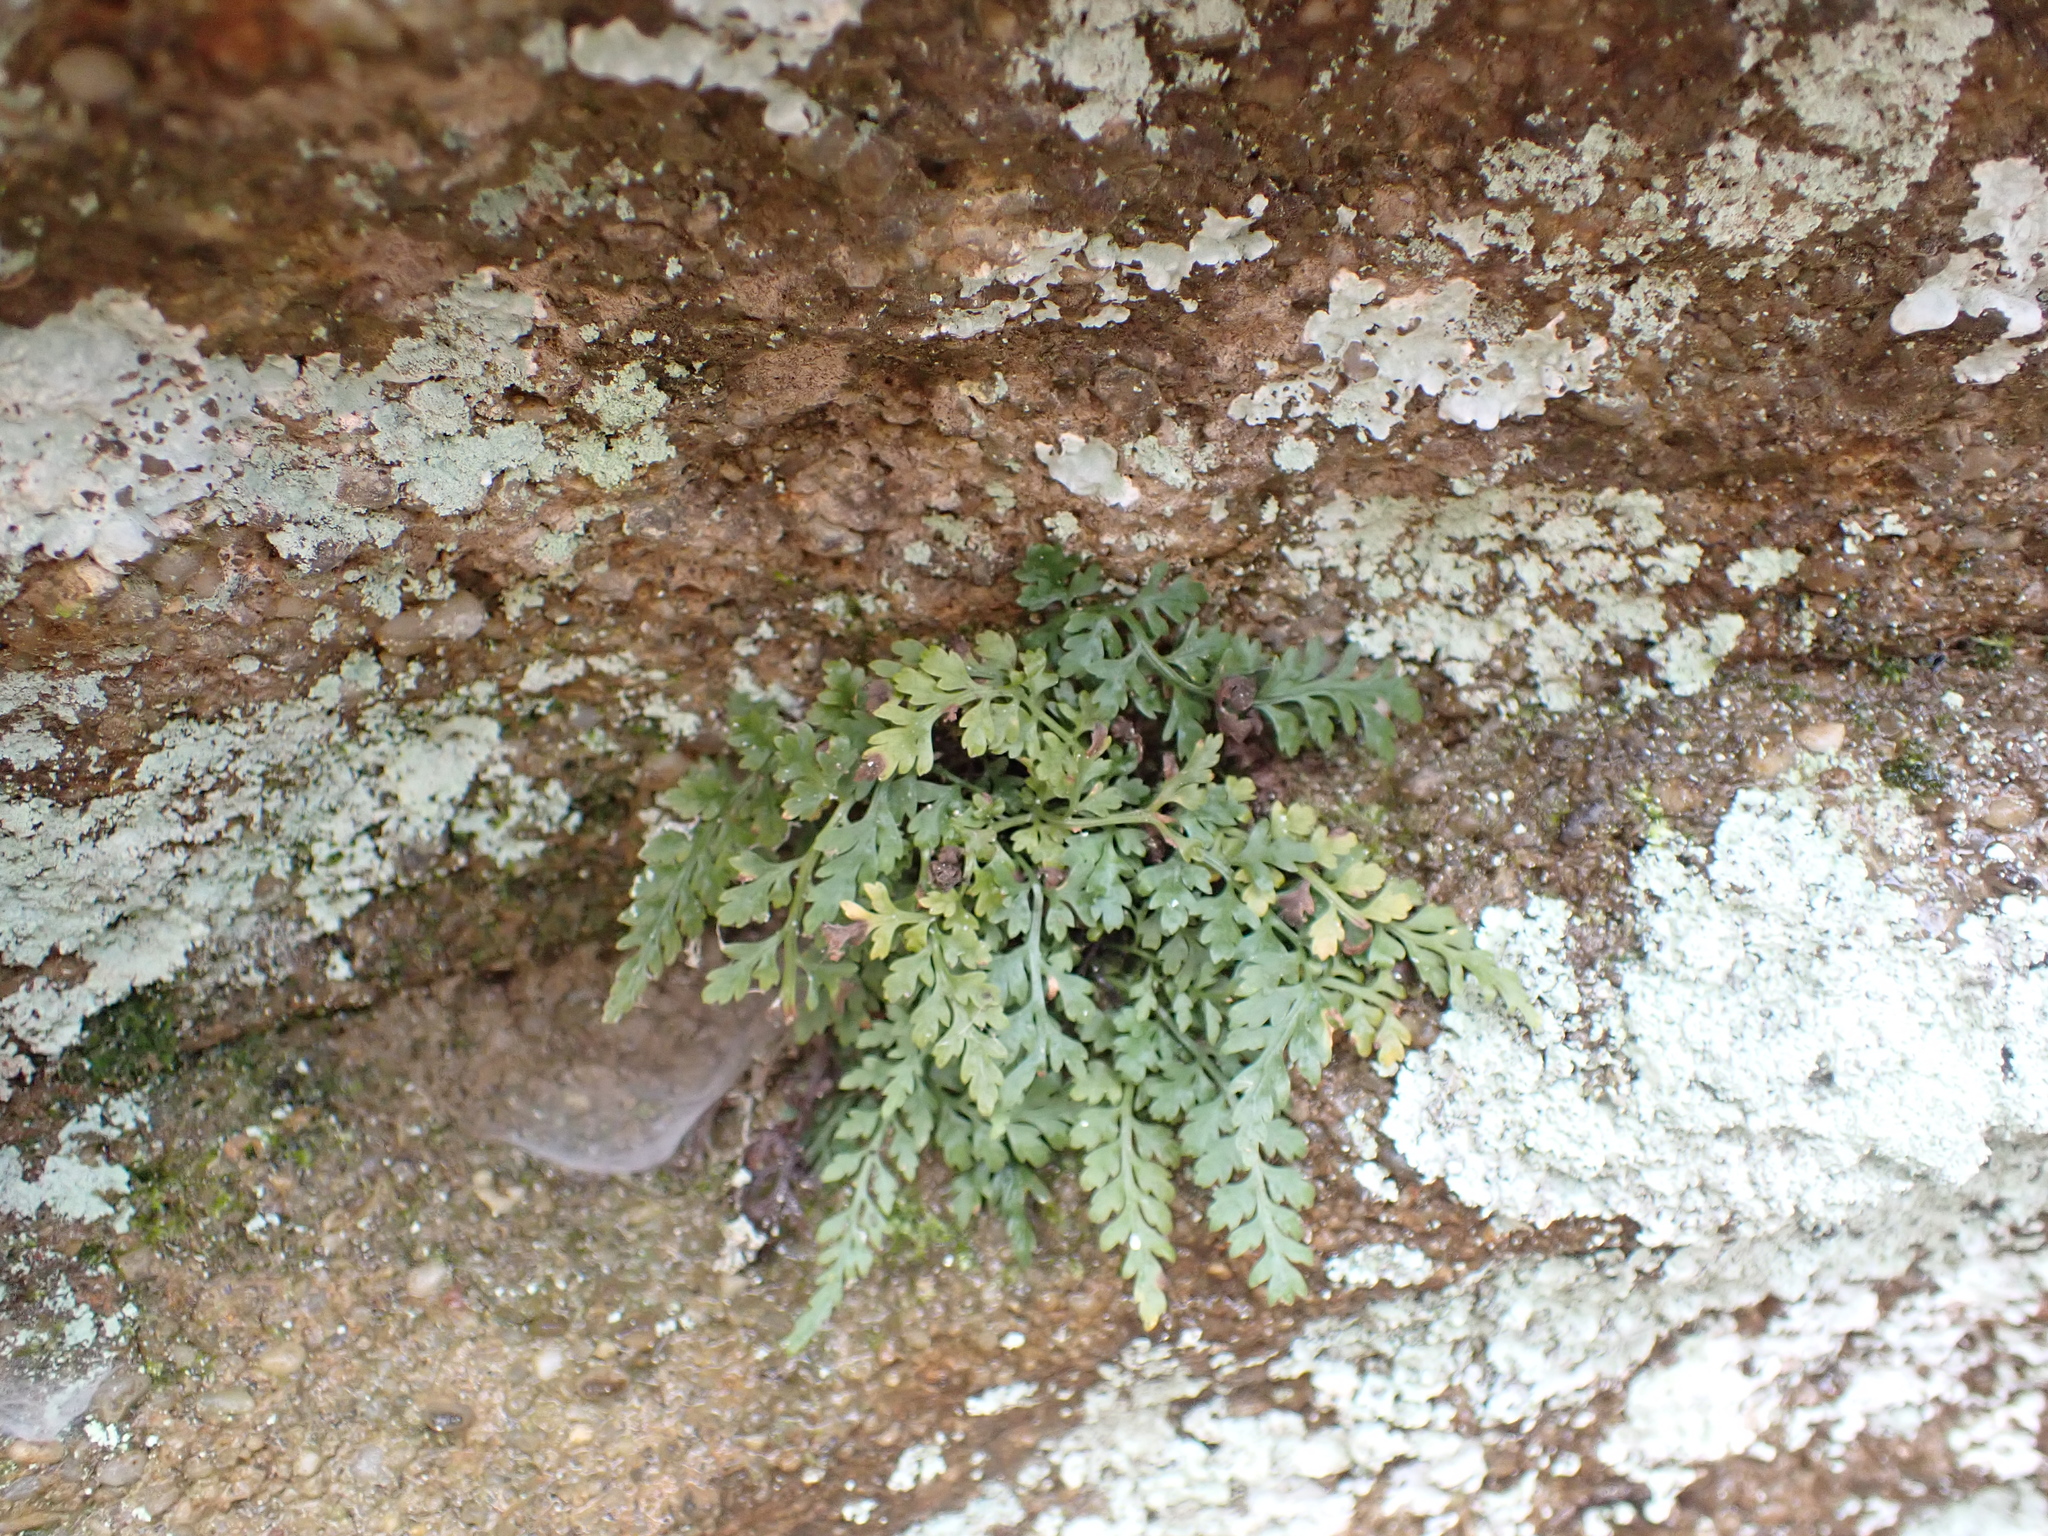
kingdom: Plantae
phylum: Tracheophyta
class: Polypodiopsida
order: Polypodiales
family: Aspleniaceae
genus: Asplenium
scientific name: Asplenium montanum
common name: Mountain spleenwort
